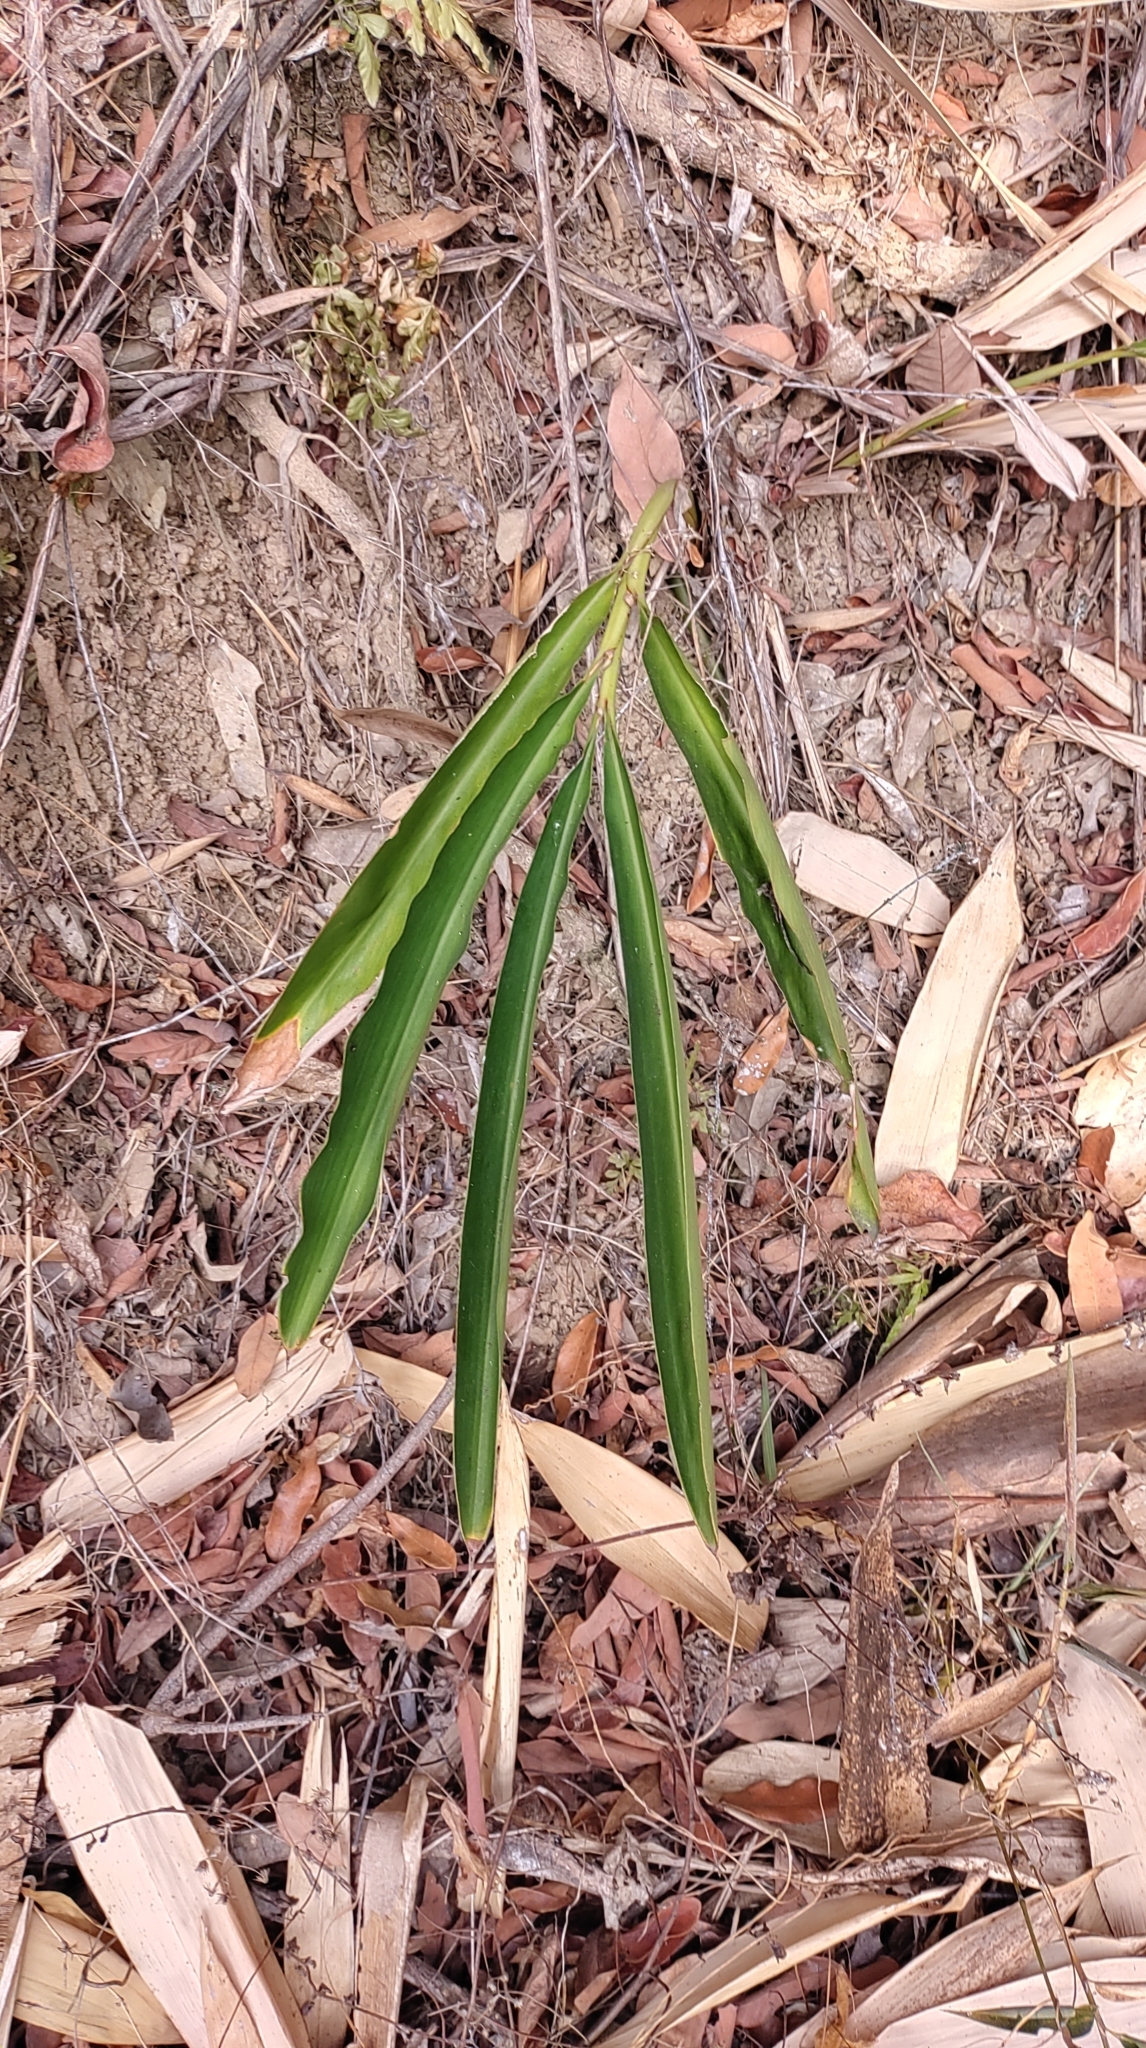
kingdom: Plantae
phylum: Tracheophyta
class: Liliopsida
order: Zingiberales
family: Zingiberaceae
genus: Alpinia
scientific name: Alpinia zerumbet
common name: Shellplant
